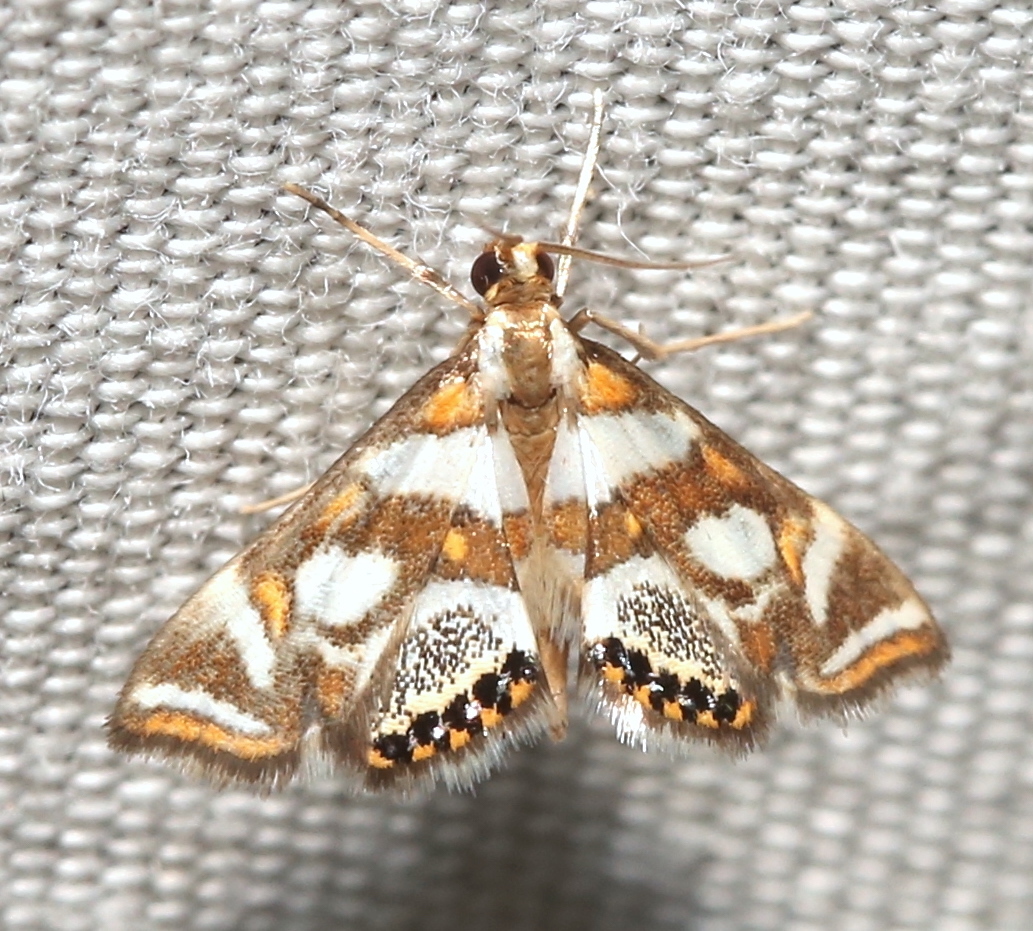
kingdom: Animalia
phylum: Arthropoda
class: Insecta
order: Lepidoptera
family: Crambidae
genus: Chrysendeton
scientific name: Chrysendeton medicinalis
